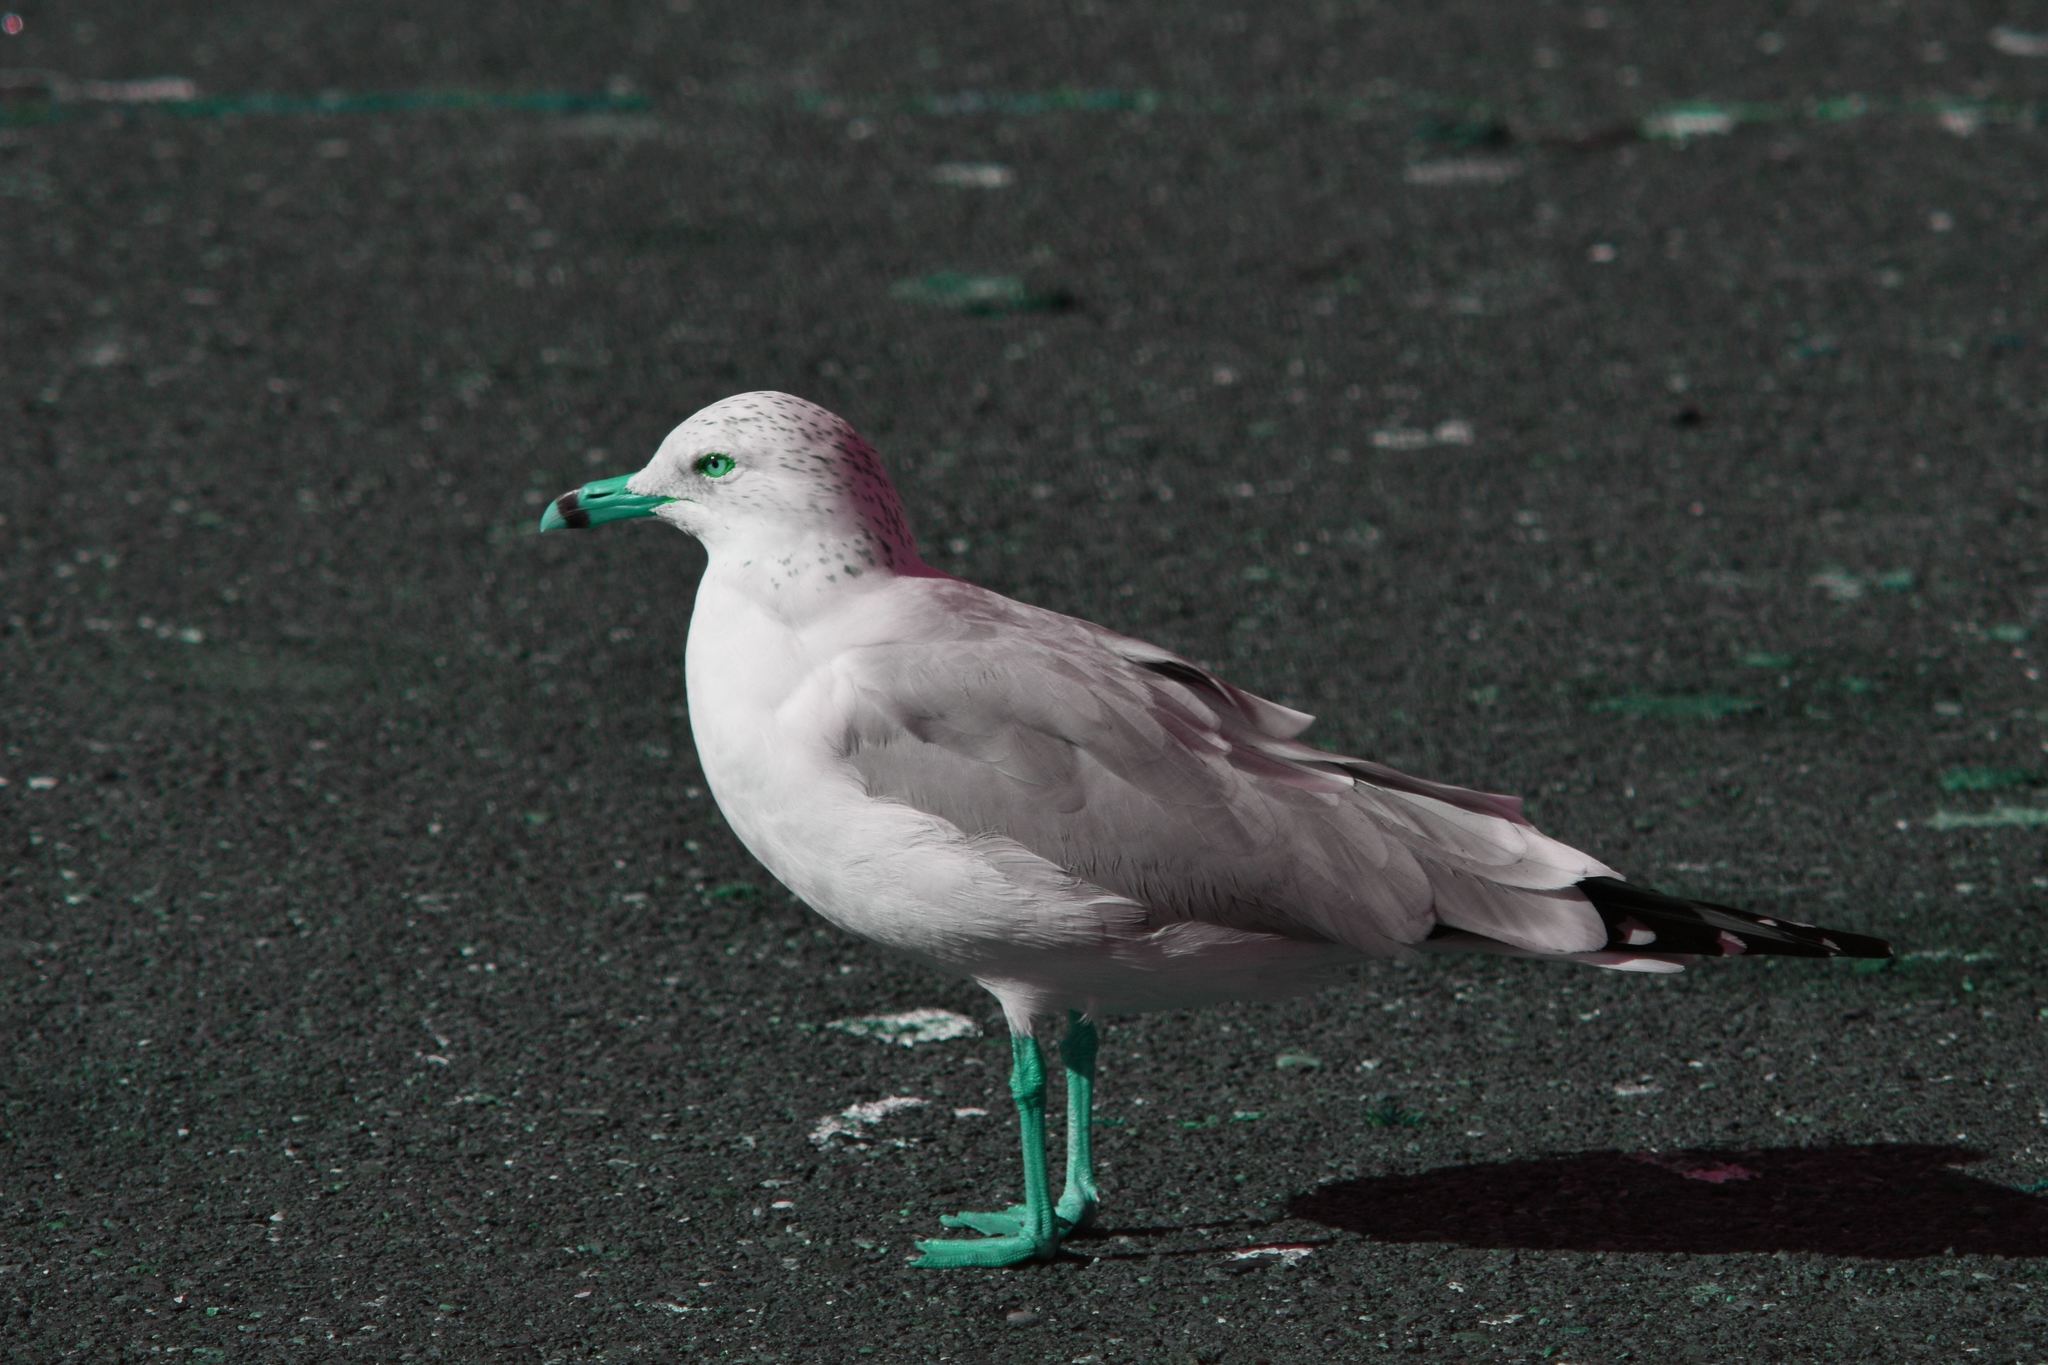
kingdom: Animalia
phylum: Chordata
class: Aves
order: Charadriiformes
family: Laridae
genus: Larus
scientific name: Larus delawarensis
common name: Ring-billed gull
